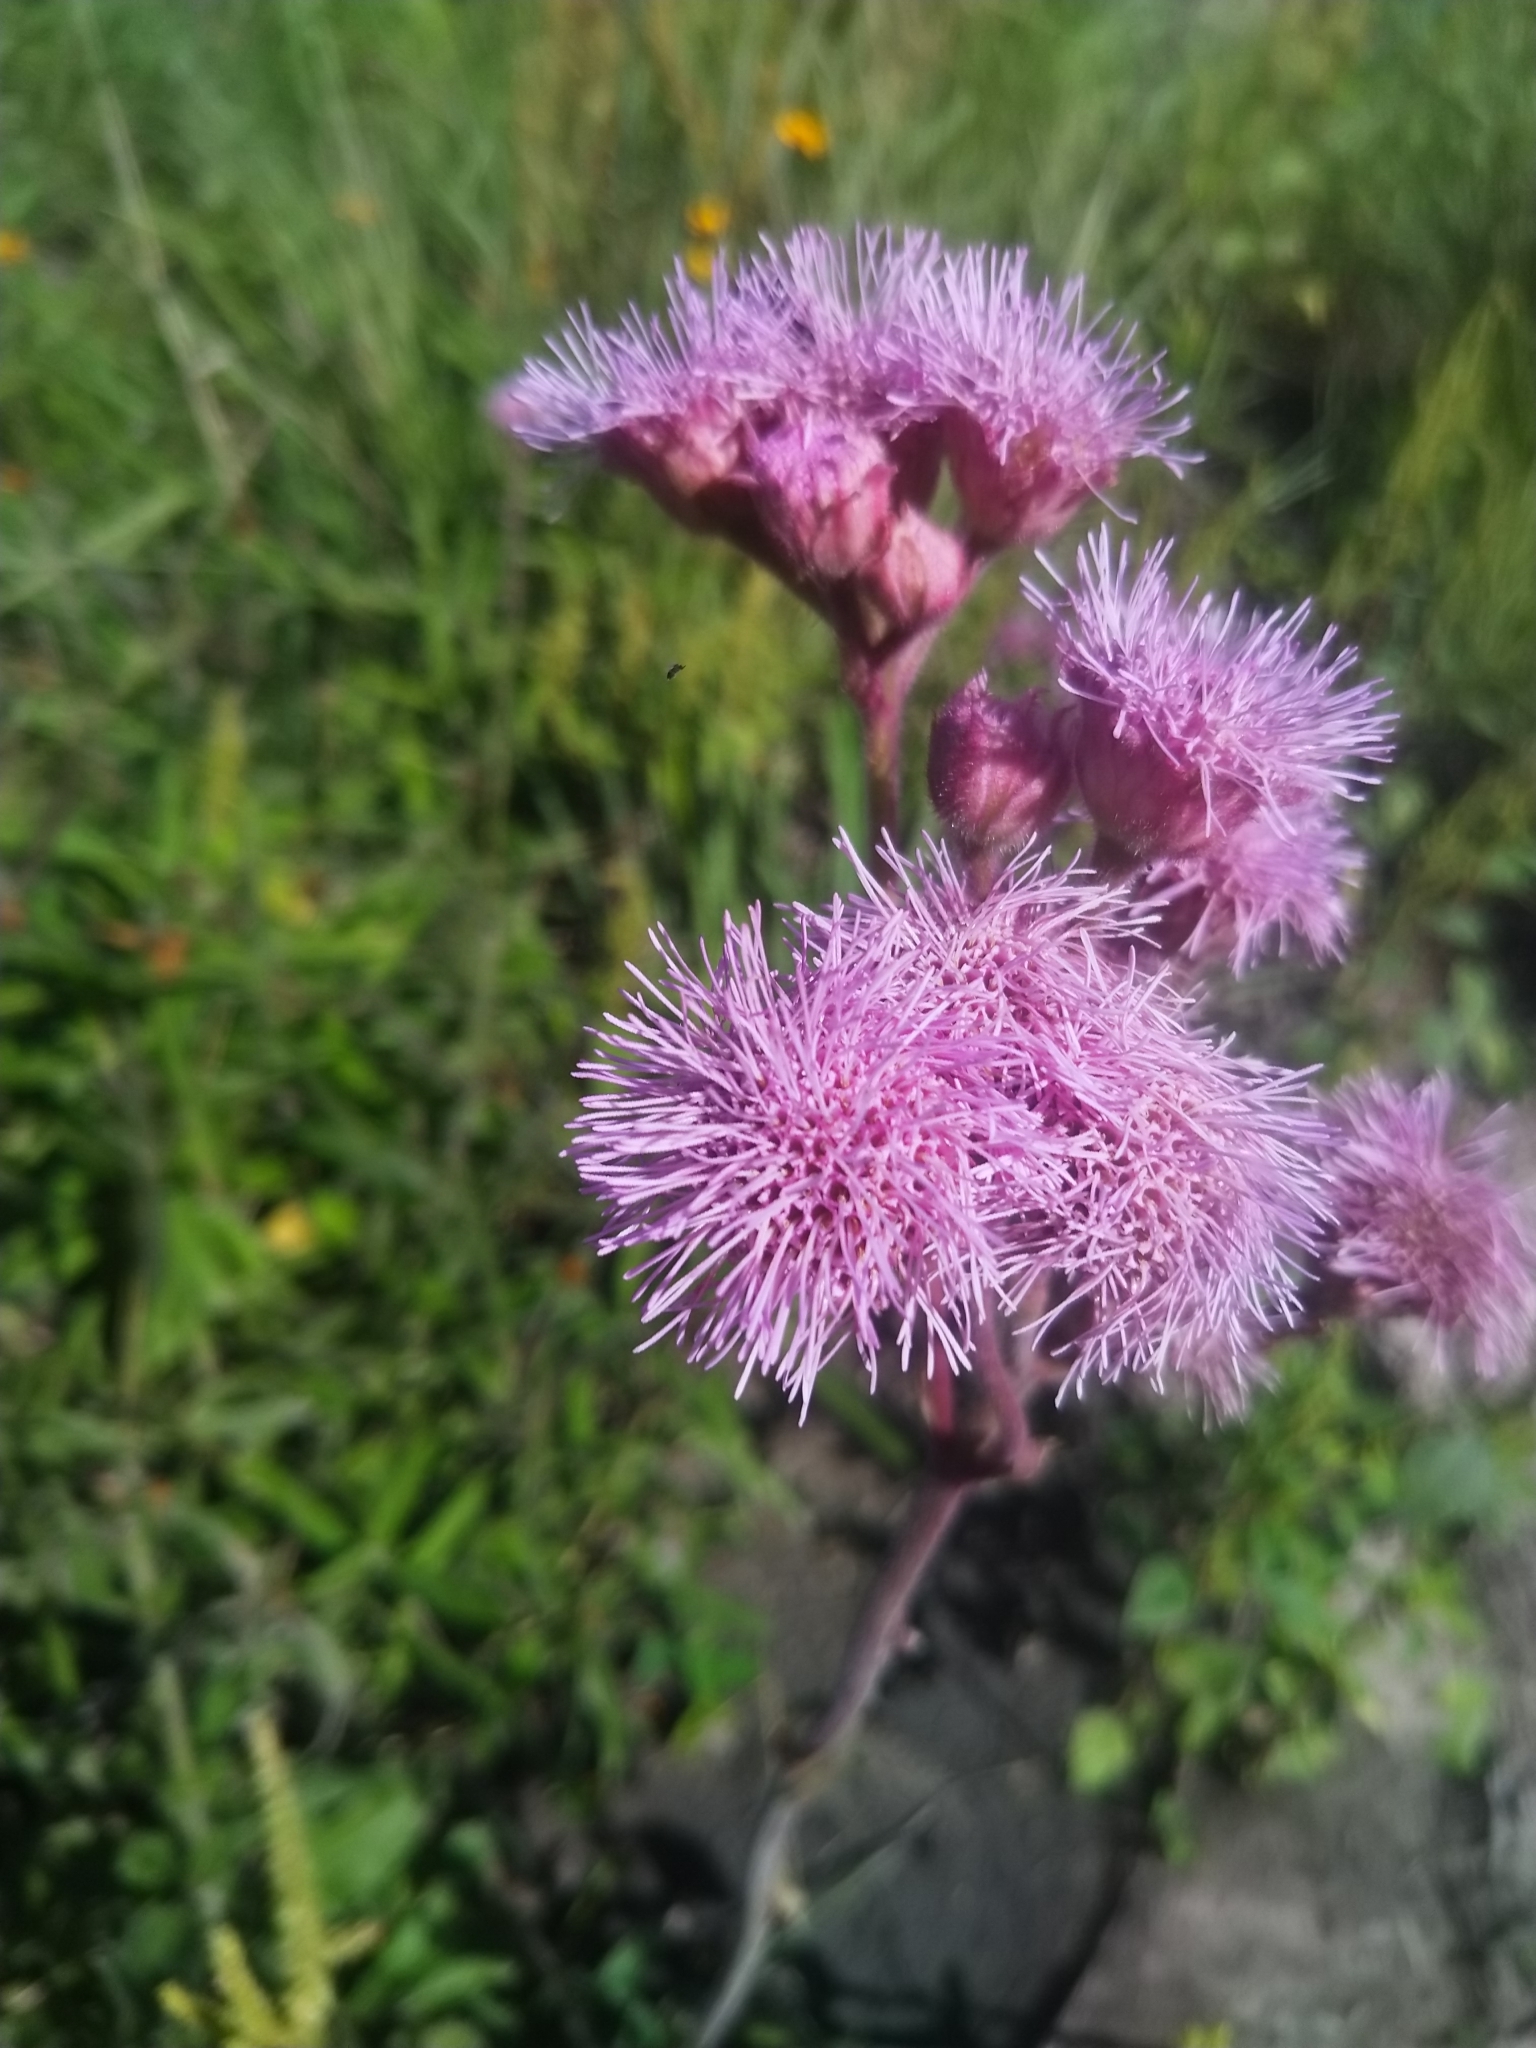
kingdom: Plantae
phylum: Tracheophyta
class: Magnoliopsida
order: Asterales
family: Asteraceae
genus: Campuloclinium
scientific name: Campuloclinium macrocephalum
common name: Pompomweed
